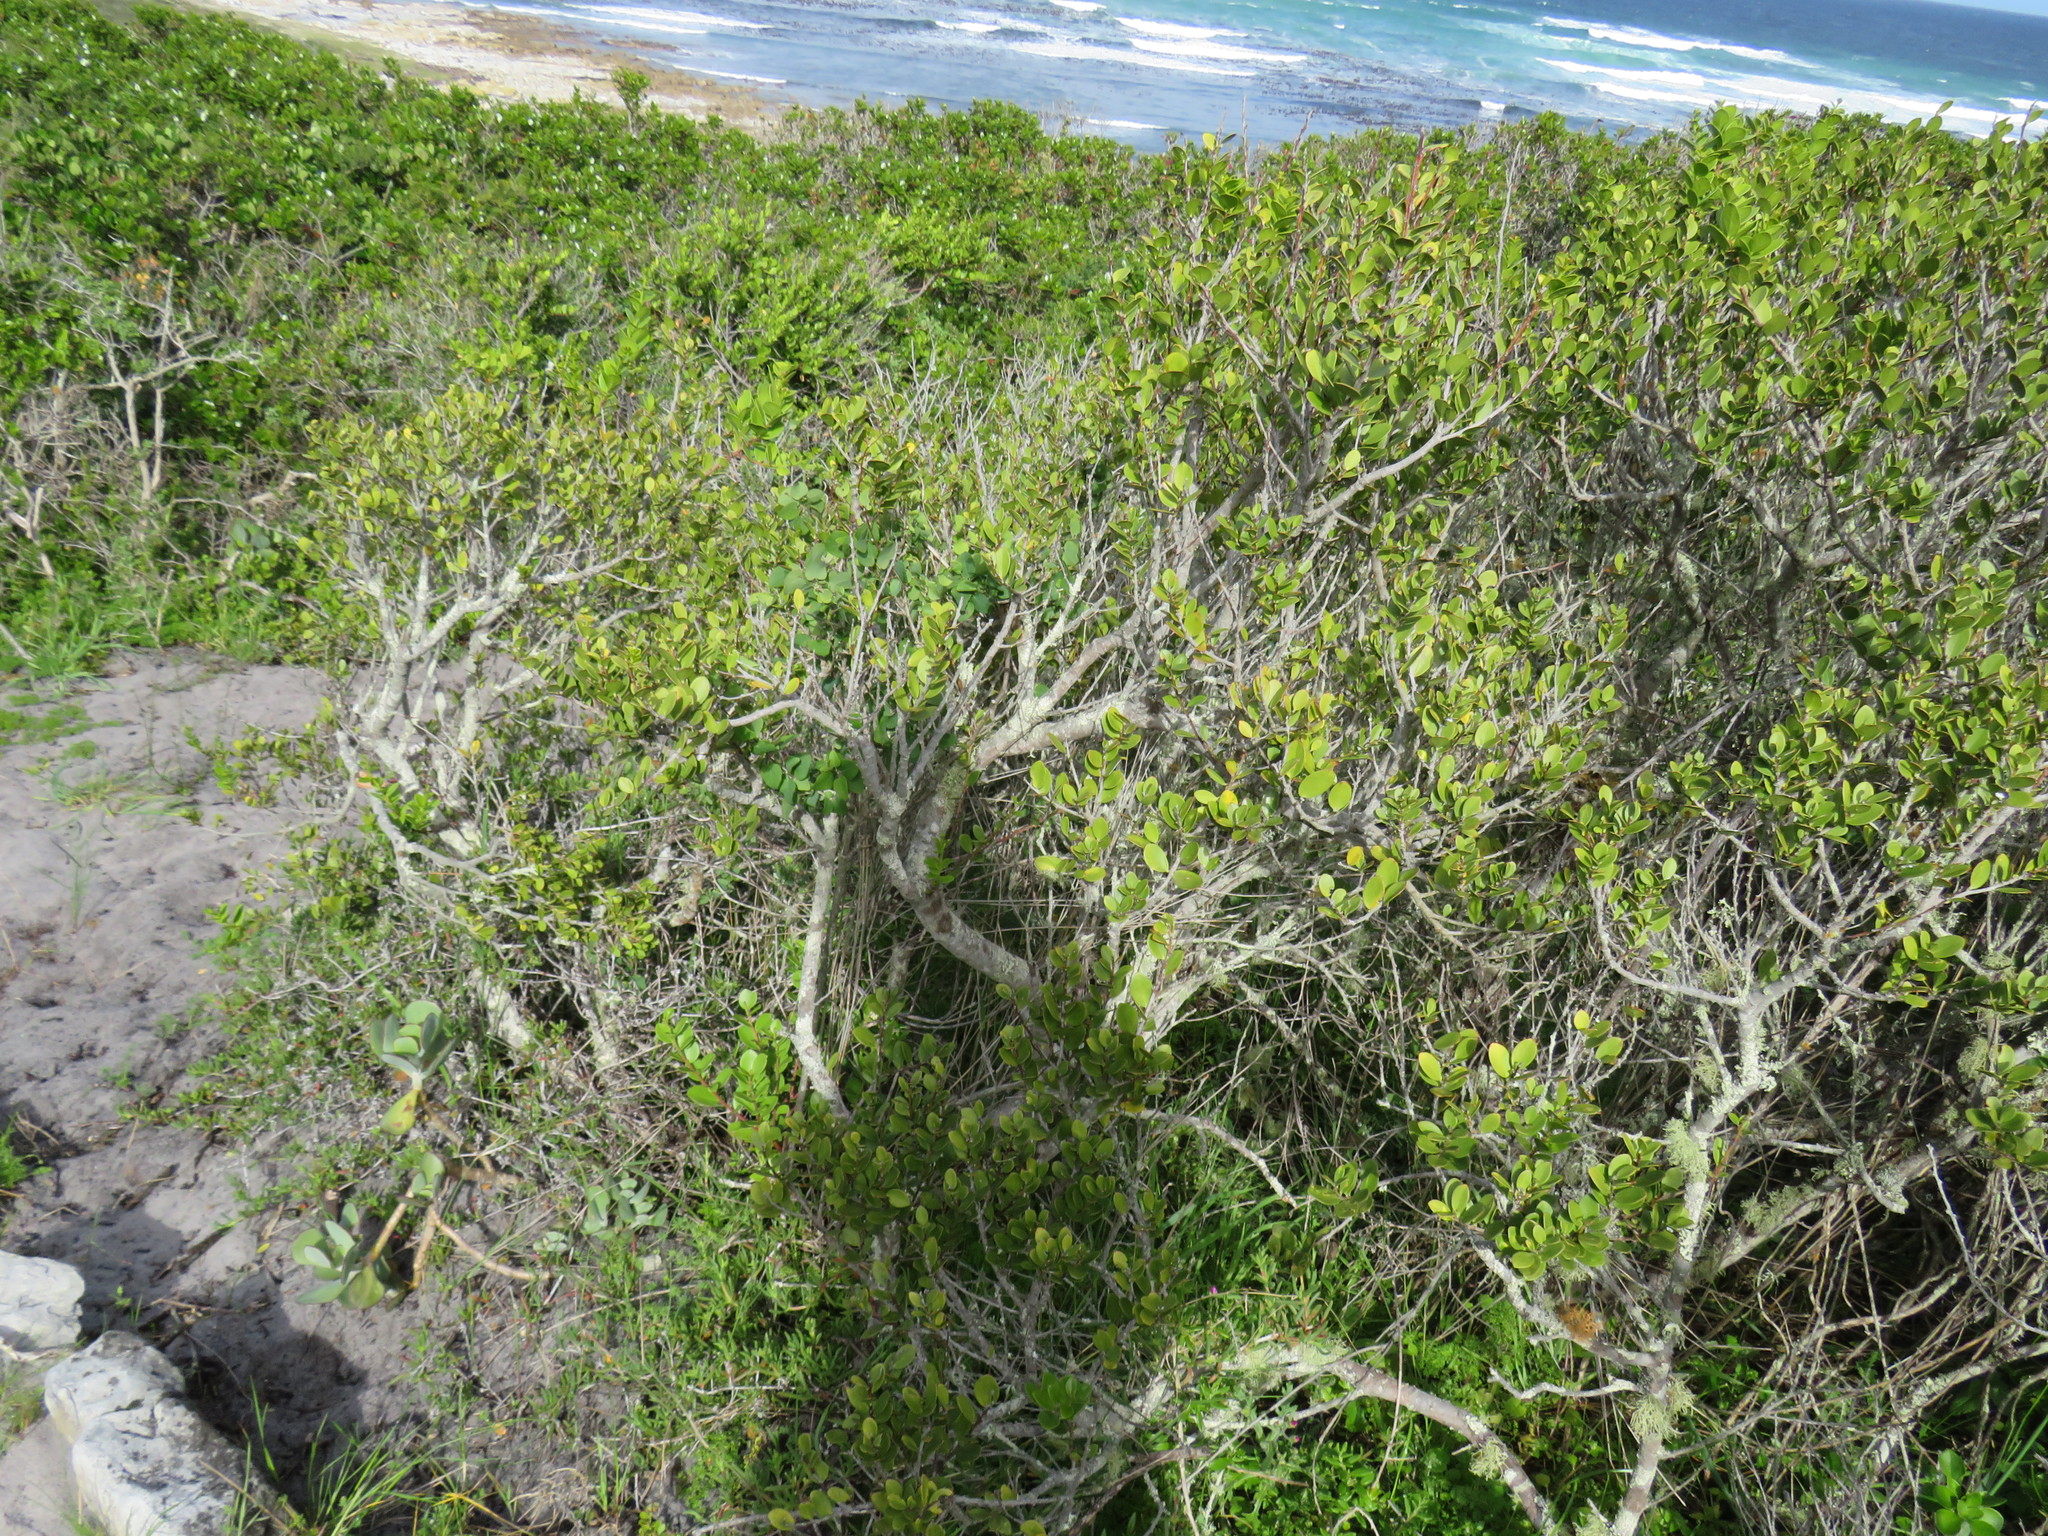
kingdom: Plantae
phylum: Tracheophyta
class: Magnoliopsida
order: Ericales
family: Ebenaceae
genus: Euclea
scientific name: Euclea racemosa
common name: Dune guarri
